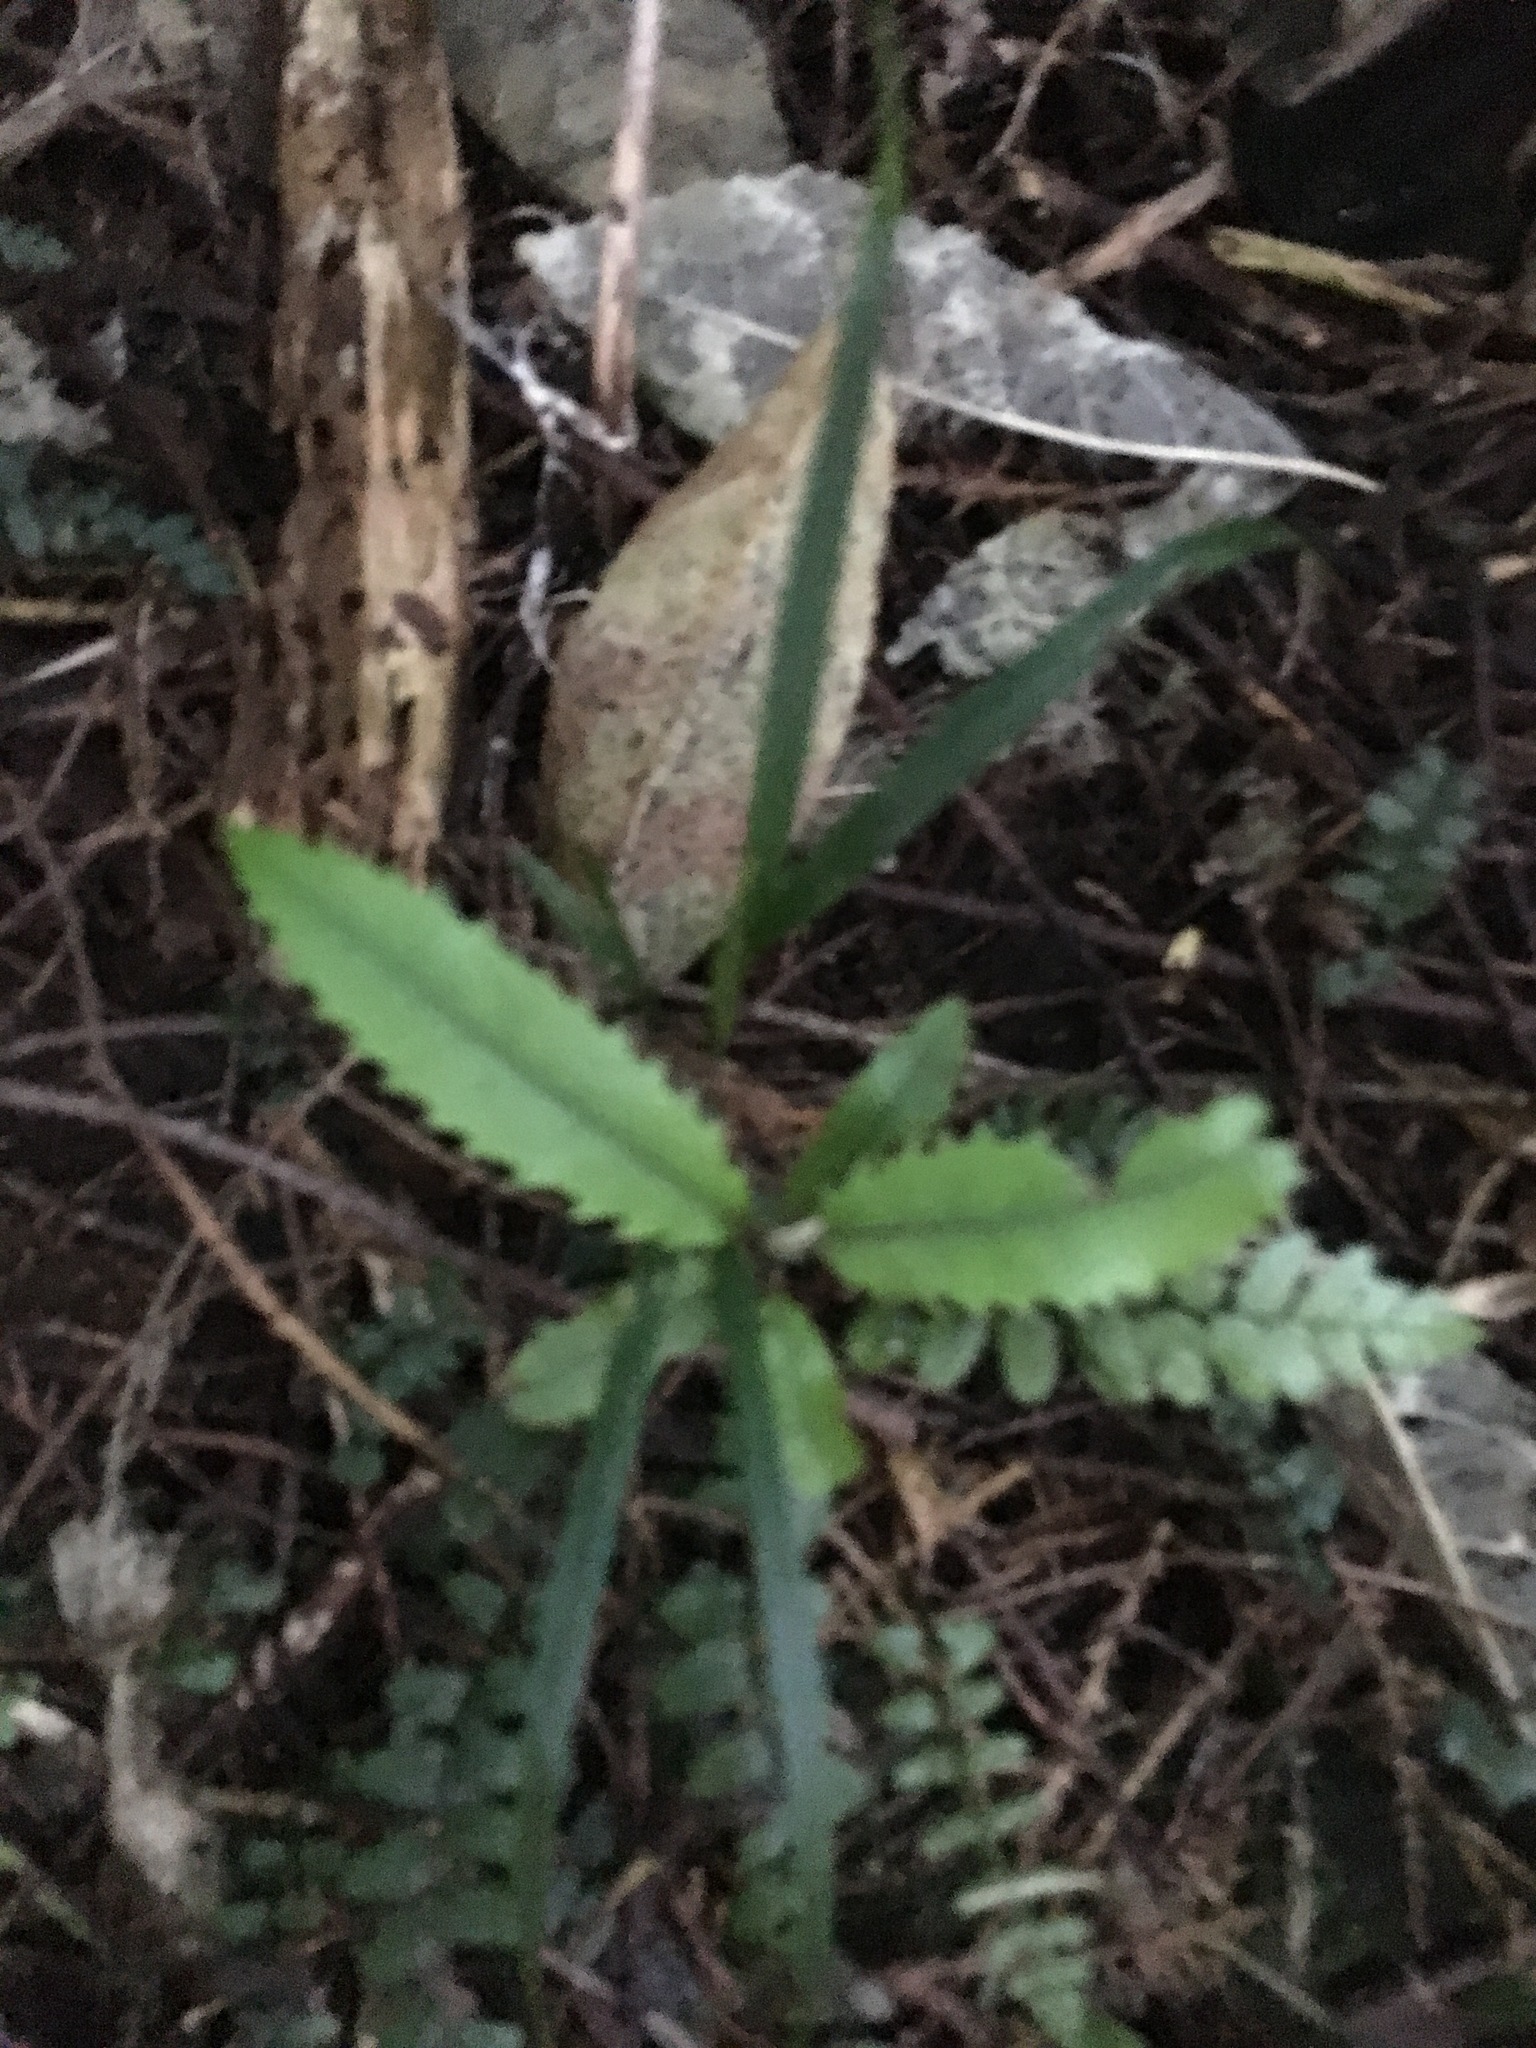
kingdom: Plantae
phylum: Tracheophyta
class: Magnoliopsida
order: Proteales
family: Proteaceae
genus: Knightia
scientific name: Knightia excelsa
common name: New zealand-honeysuckle
